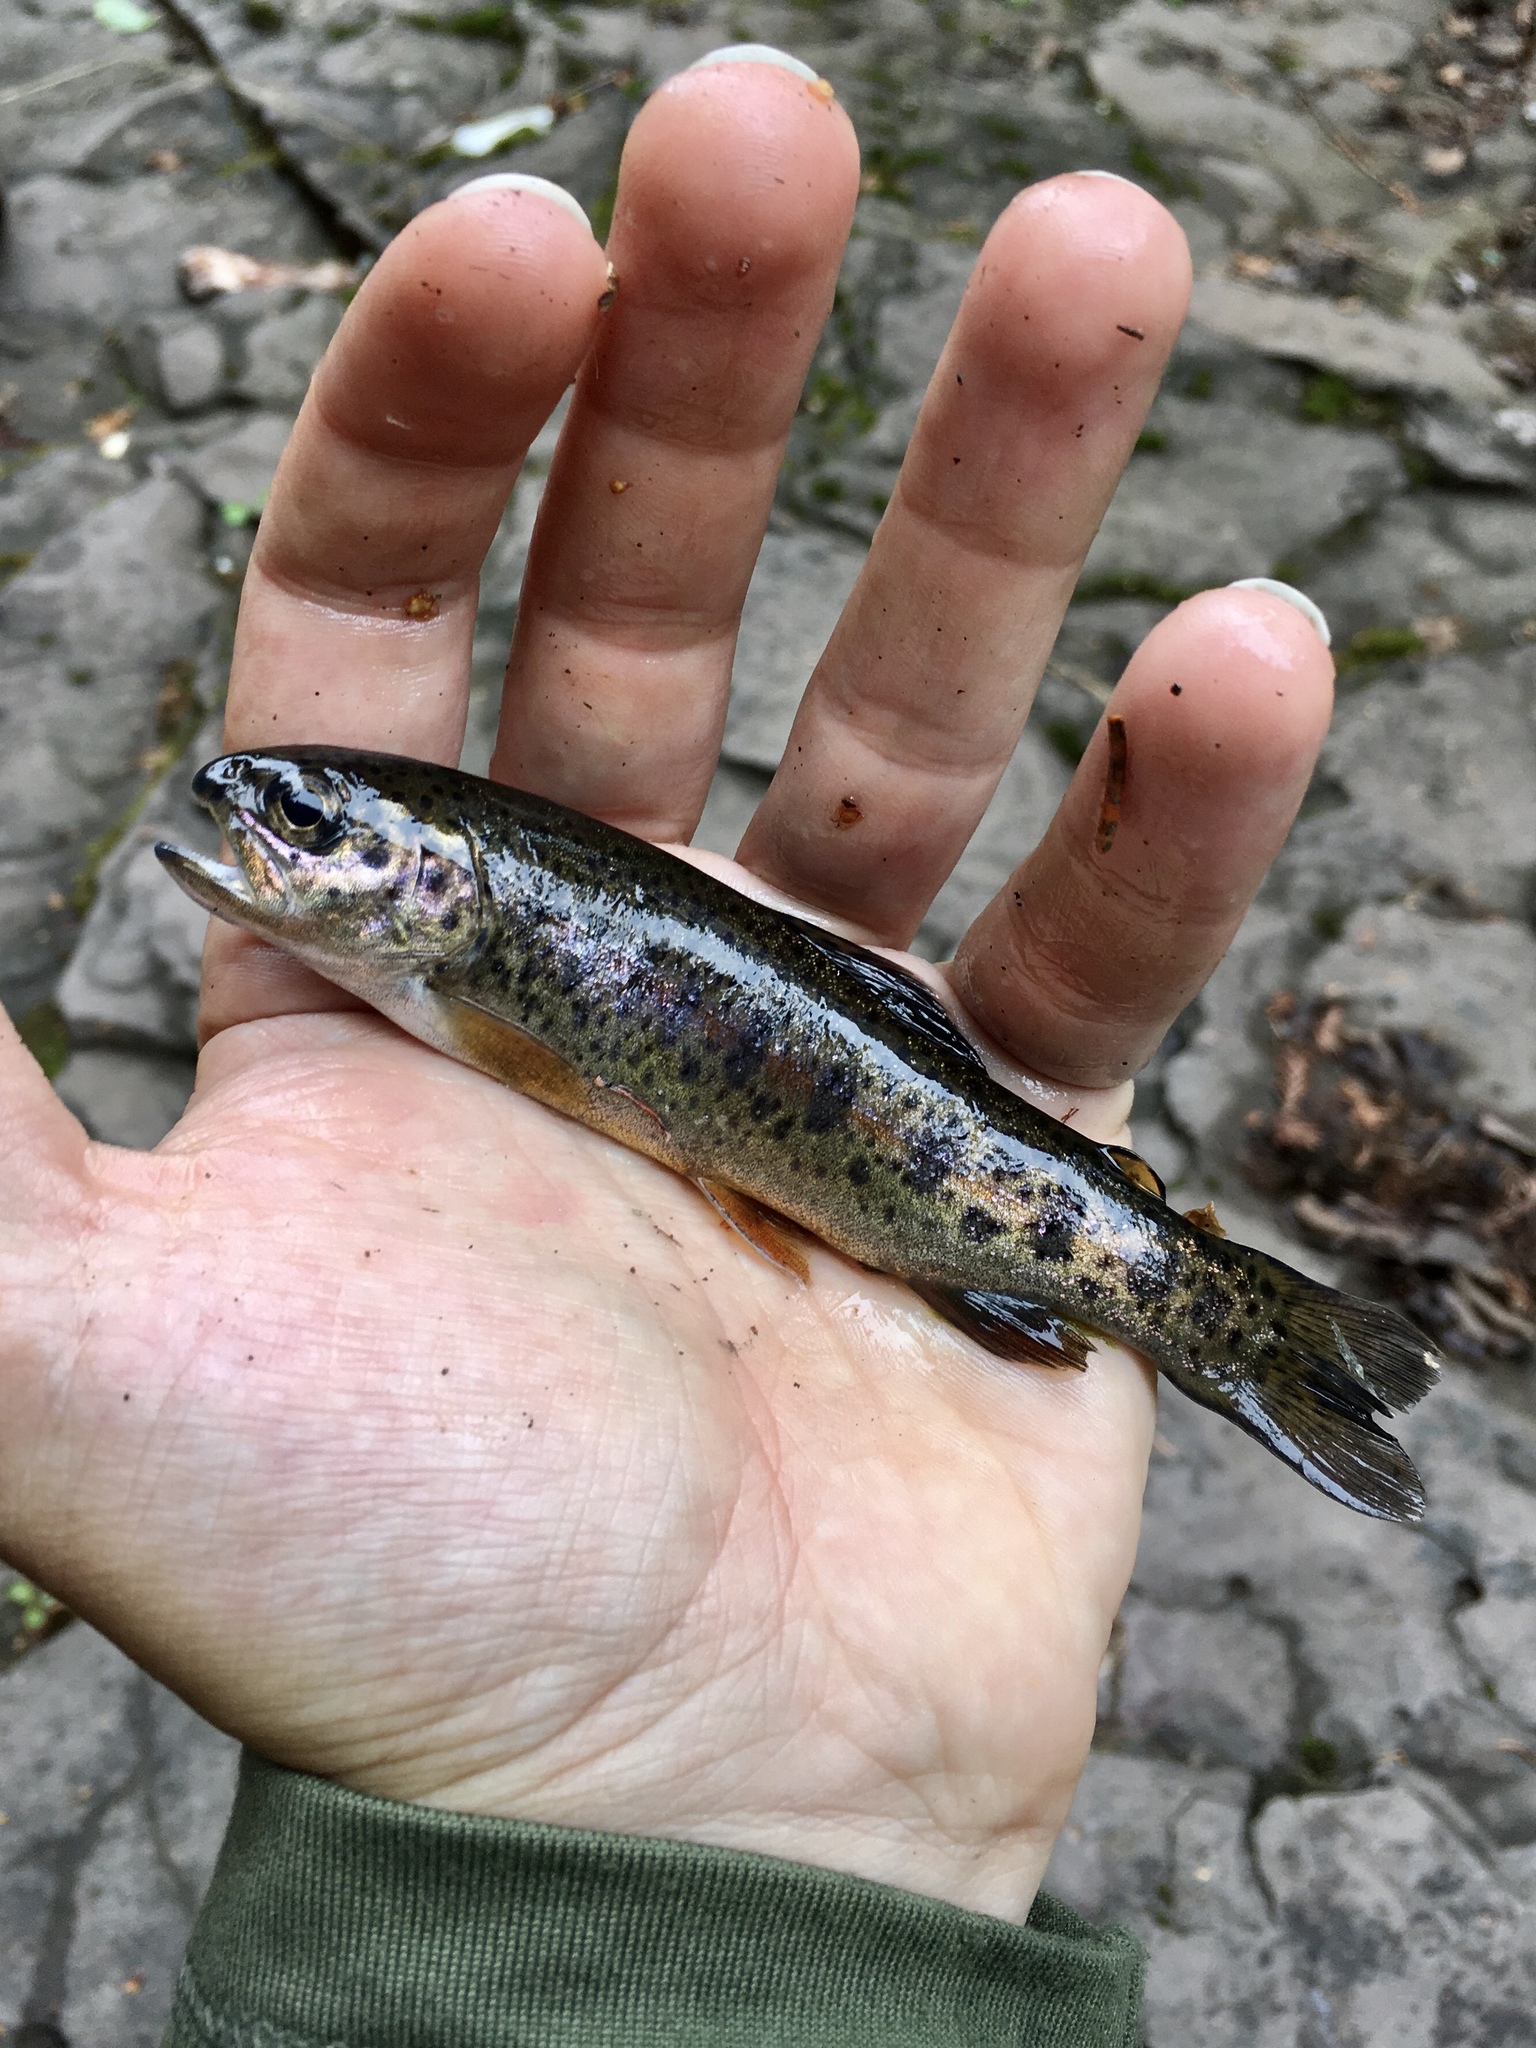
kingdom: Animalia
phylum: Chordata
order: Salmoniformes
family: Salmonidae
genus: Oncorhynchus
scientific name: Oncorhynchus mykiss
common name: Rainbow trout
